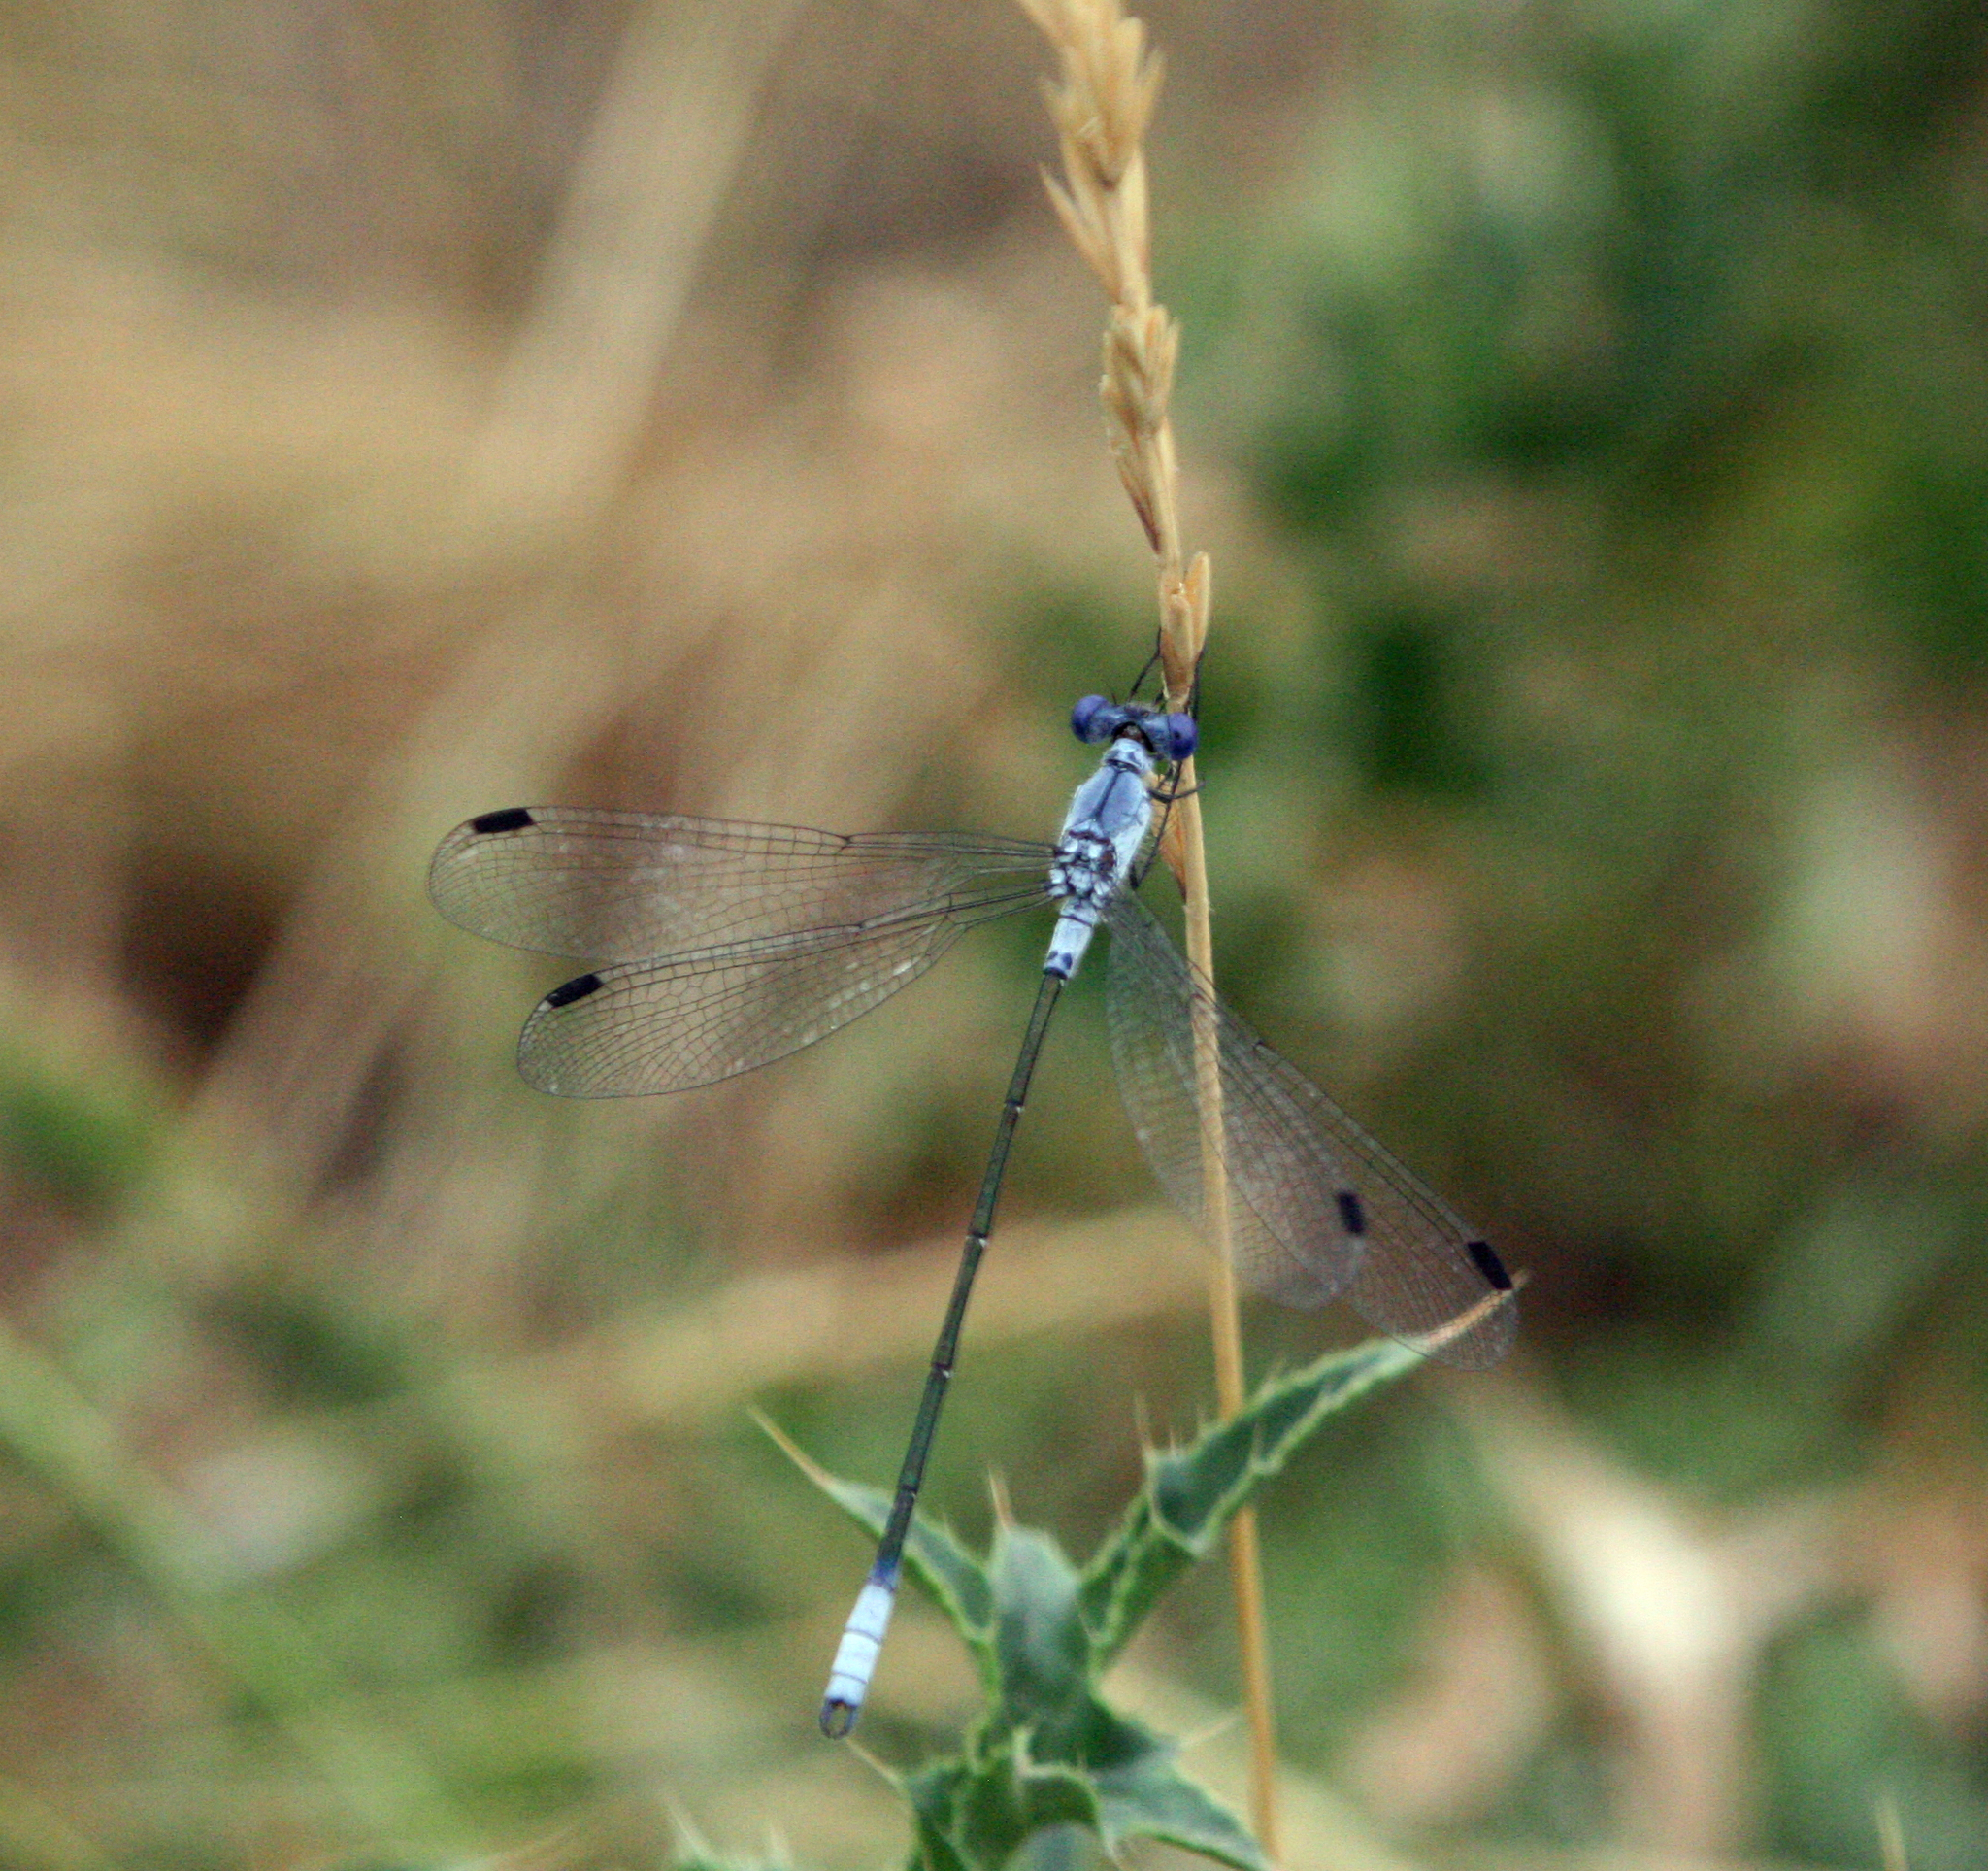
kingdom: Animalia
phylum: Arthropoda
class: Insecta
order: Odonata
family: Lestidae
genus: Lestes
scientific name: Lestes macrostigma
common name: Dark spreadwing
